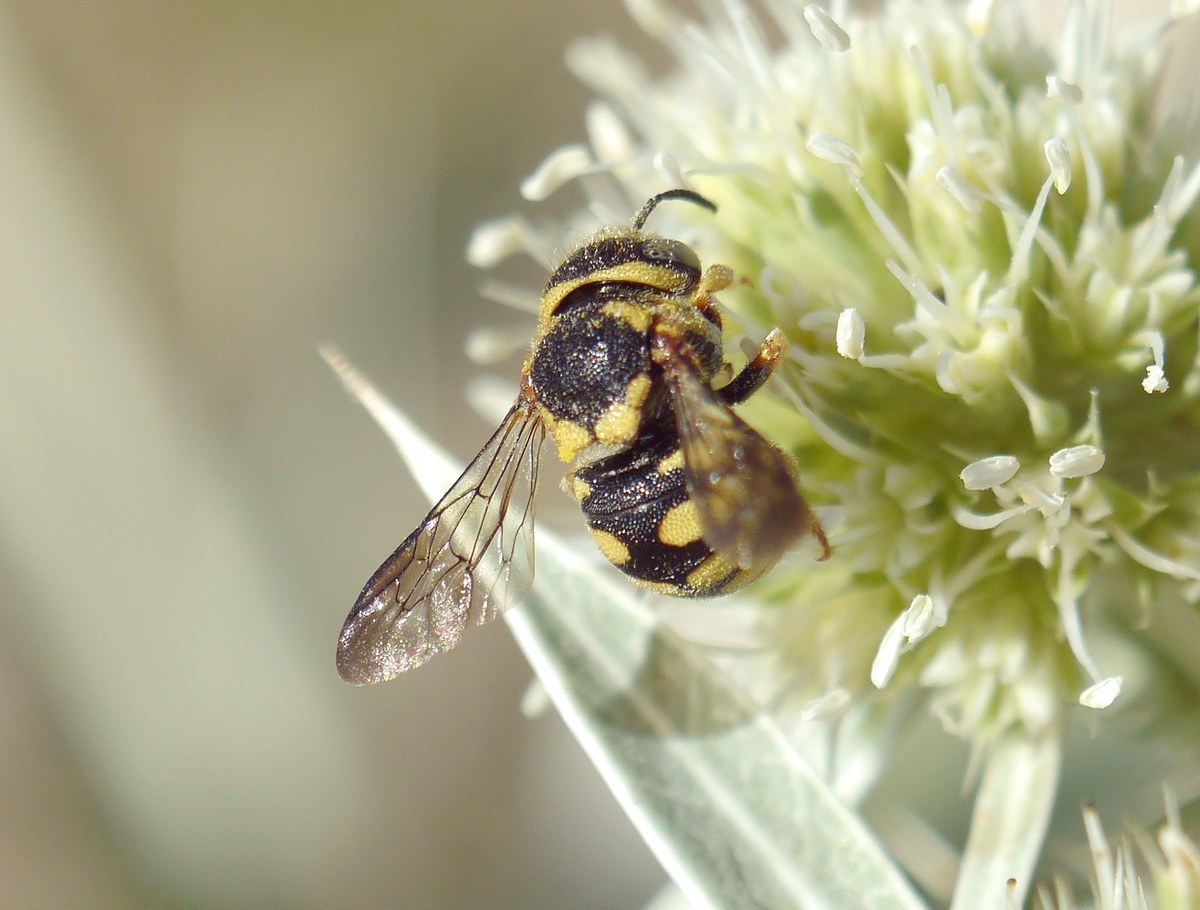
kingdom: Animalia
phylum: Arthropoda
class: Insecta
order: Hymenoptera
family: Megachilidae
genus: Anthidiellum
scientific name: Anthidiellum strigatum
